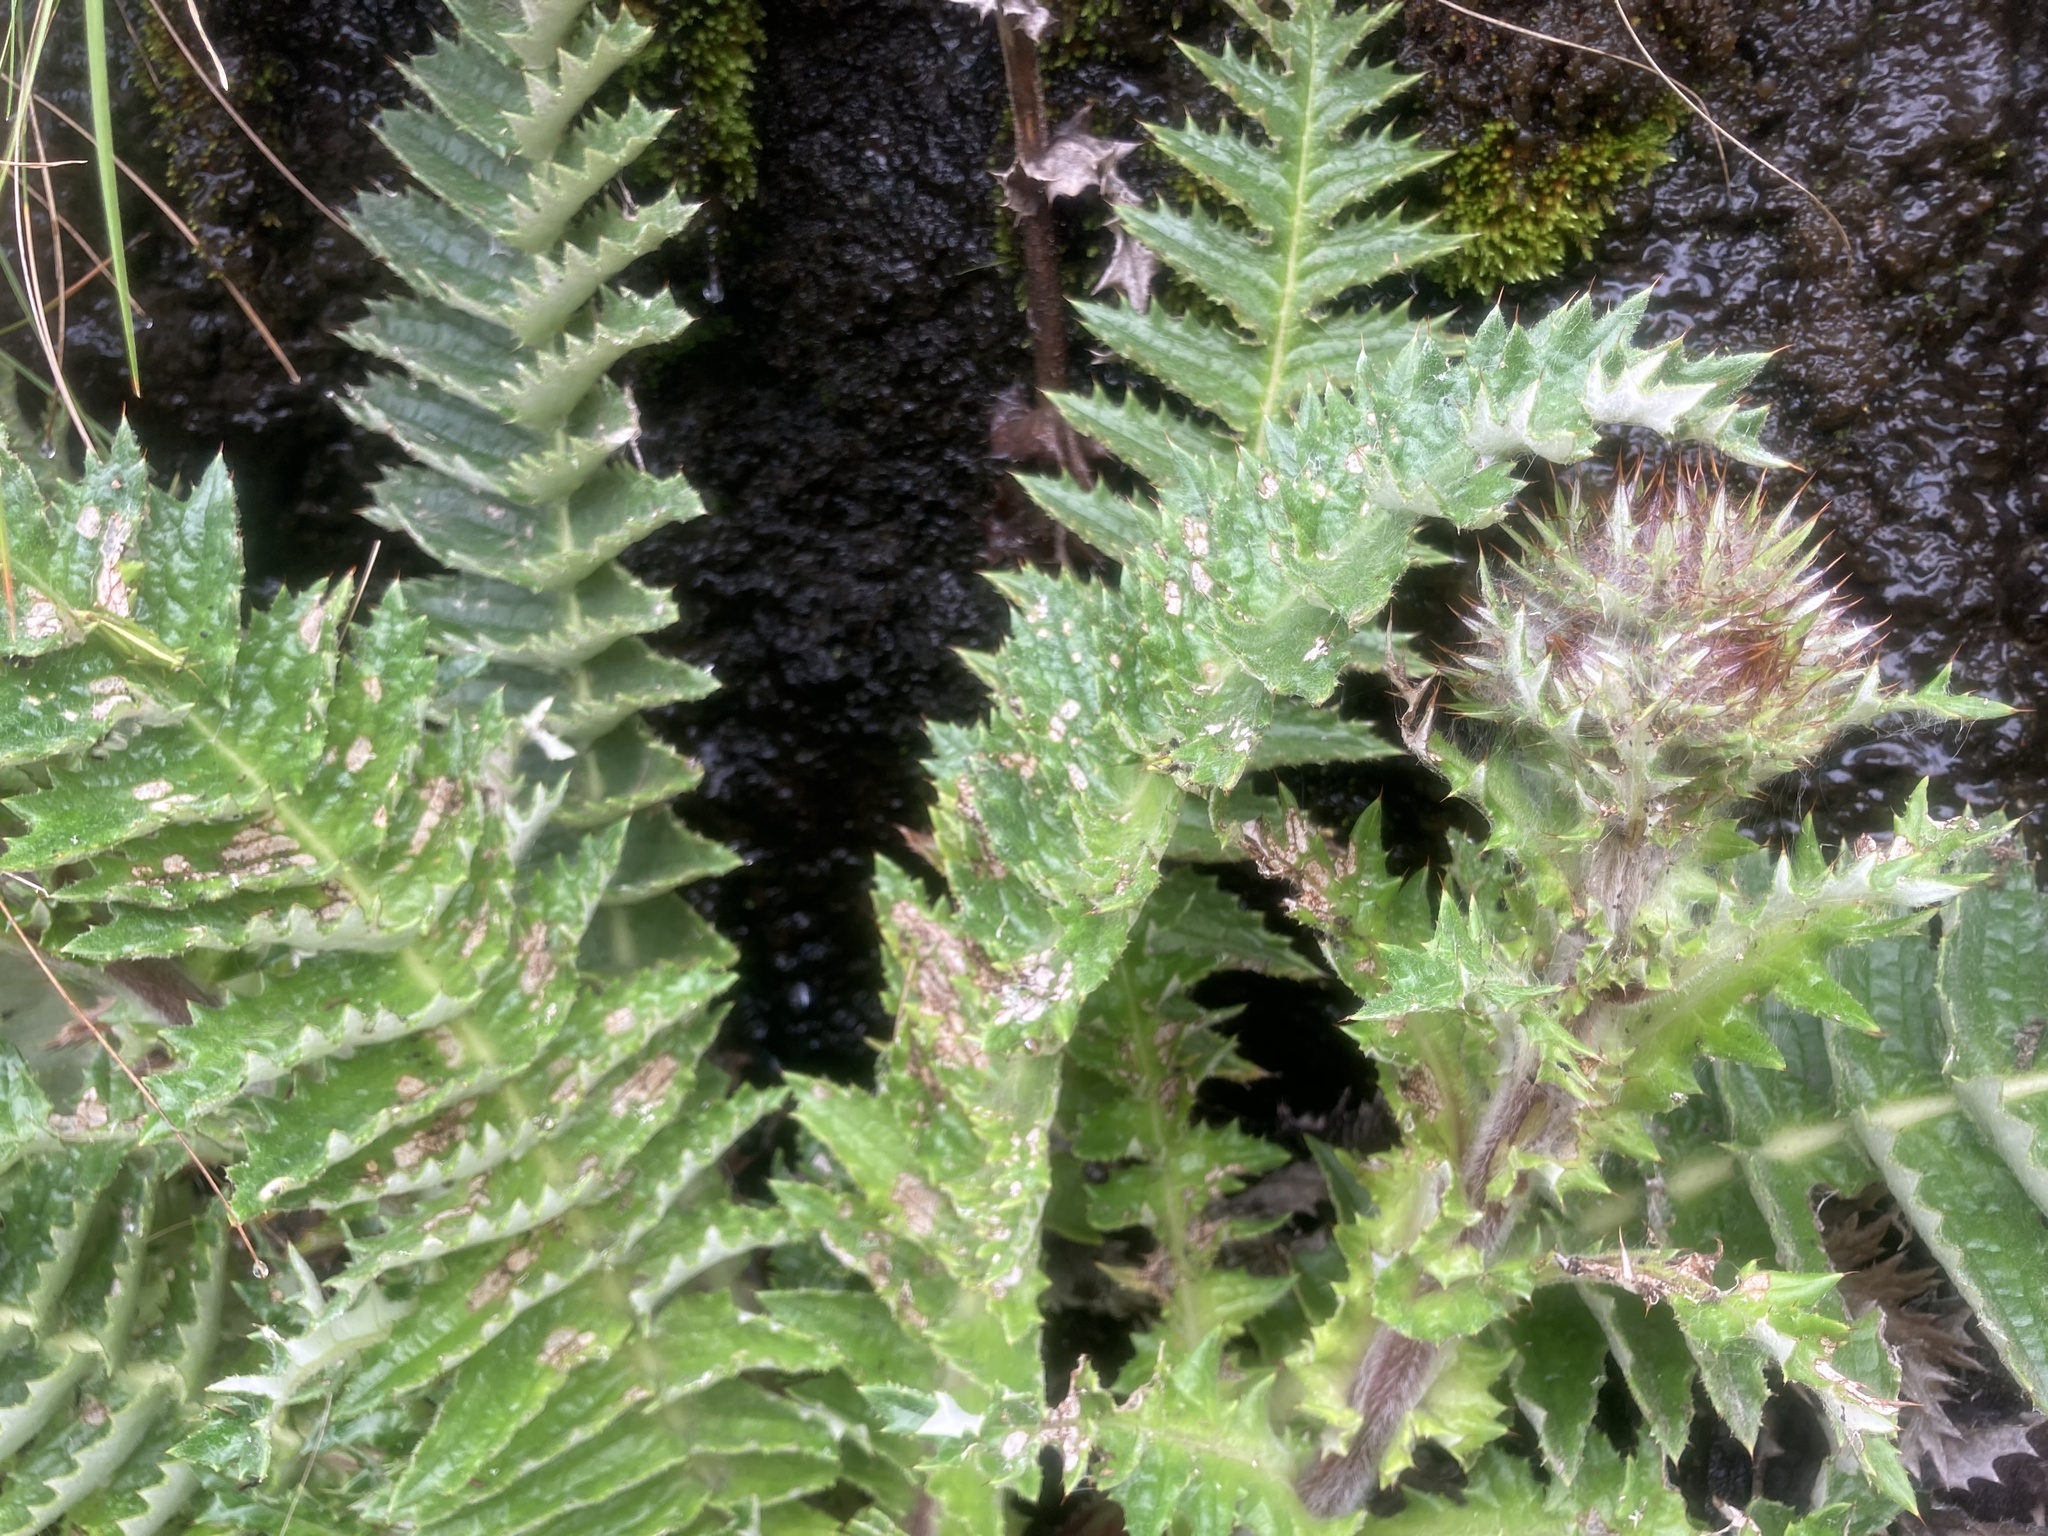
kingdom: Plantae
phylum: Tracheophyta
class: Magnoliopsida
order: Asterales
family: Asteraceae
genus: Berkheya
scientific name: Berkheya multijuga
